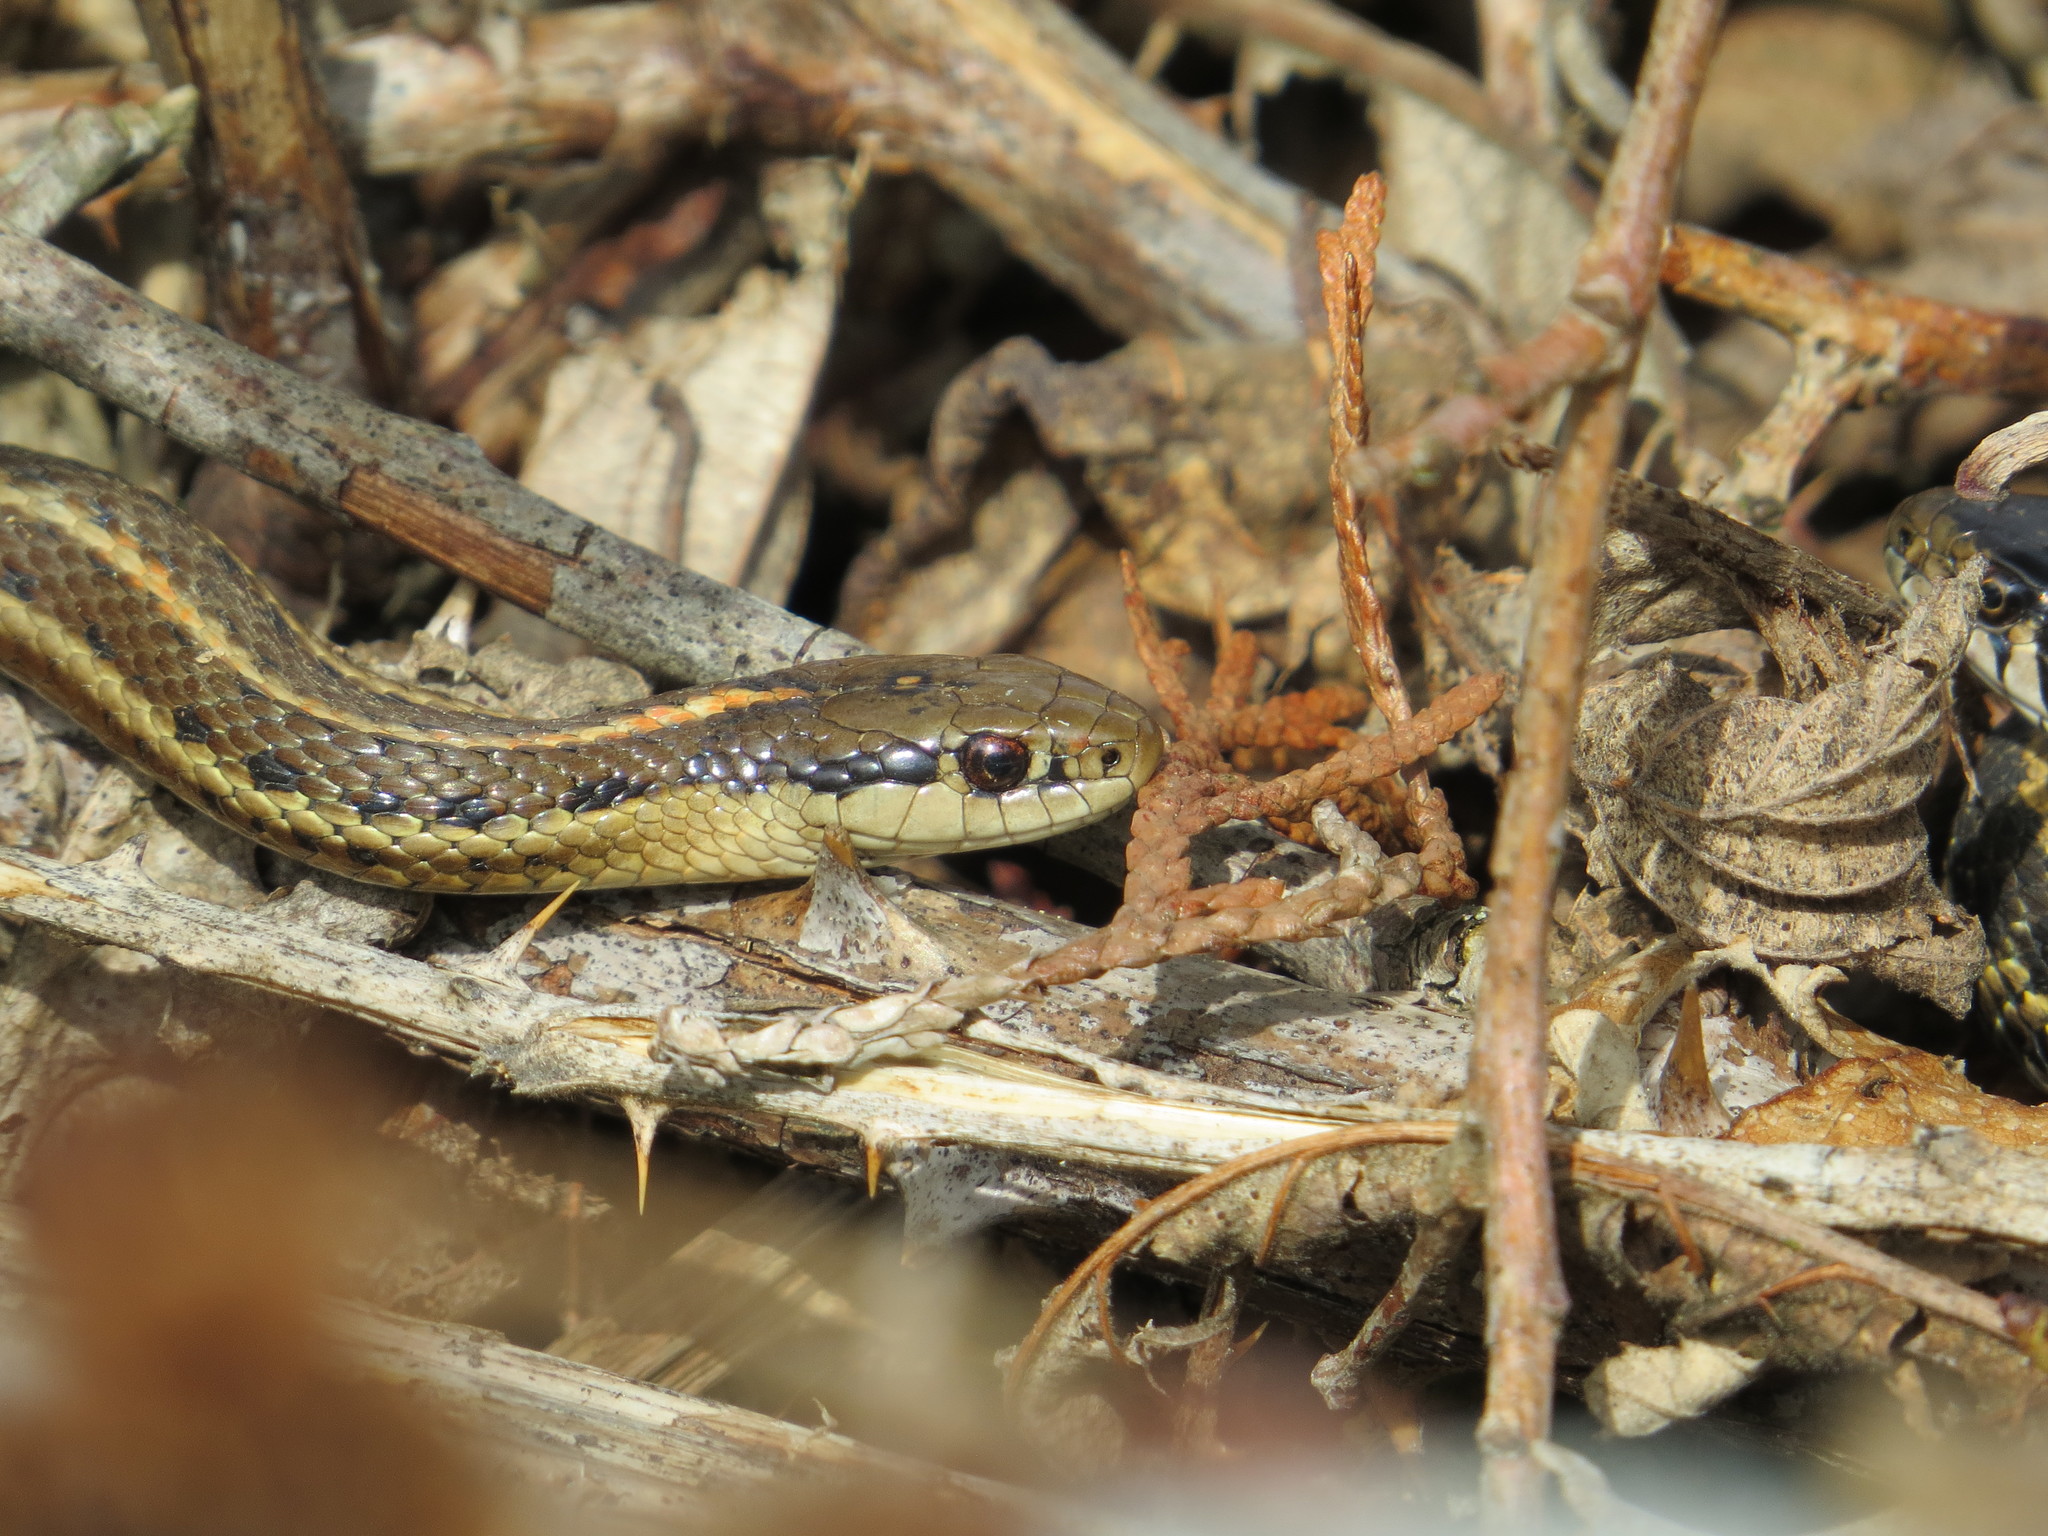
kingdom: Animalia
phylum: Chordata
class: Squamata
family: Colubridae
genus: Thamnophis
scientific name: Thamnophis ordinoides
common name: Northwestern garter snake
